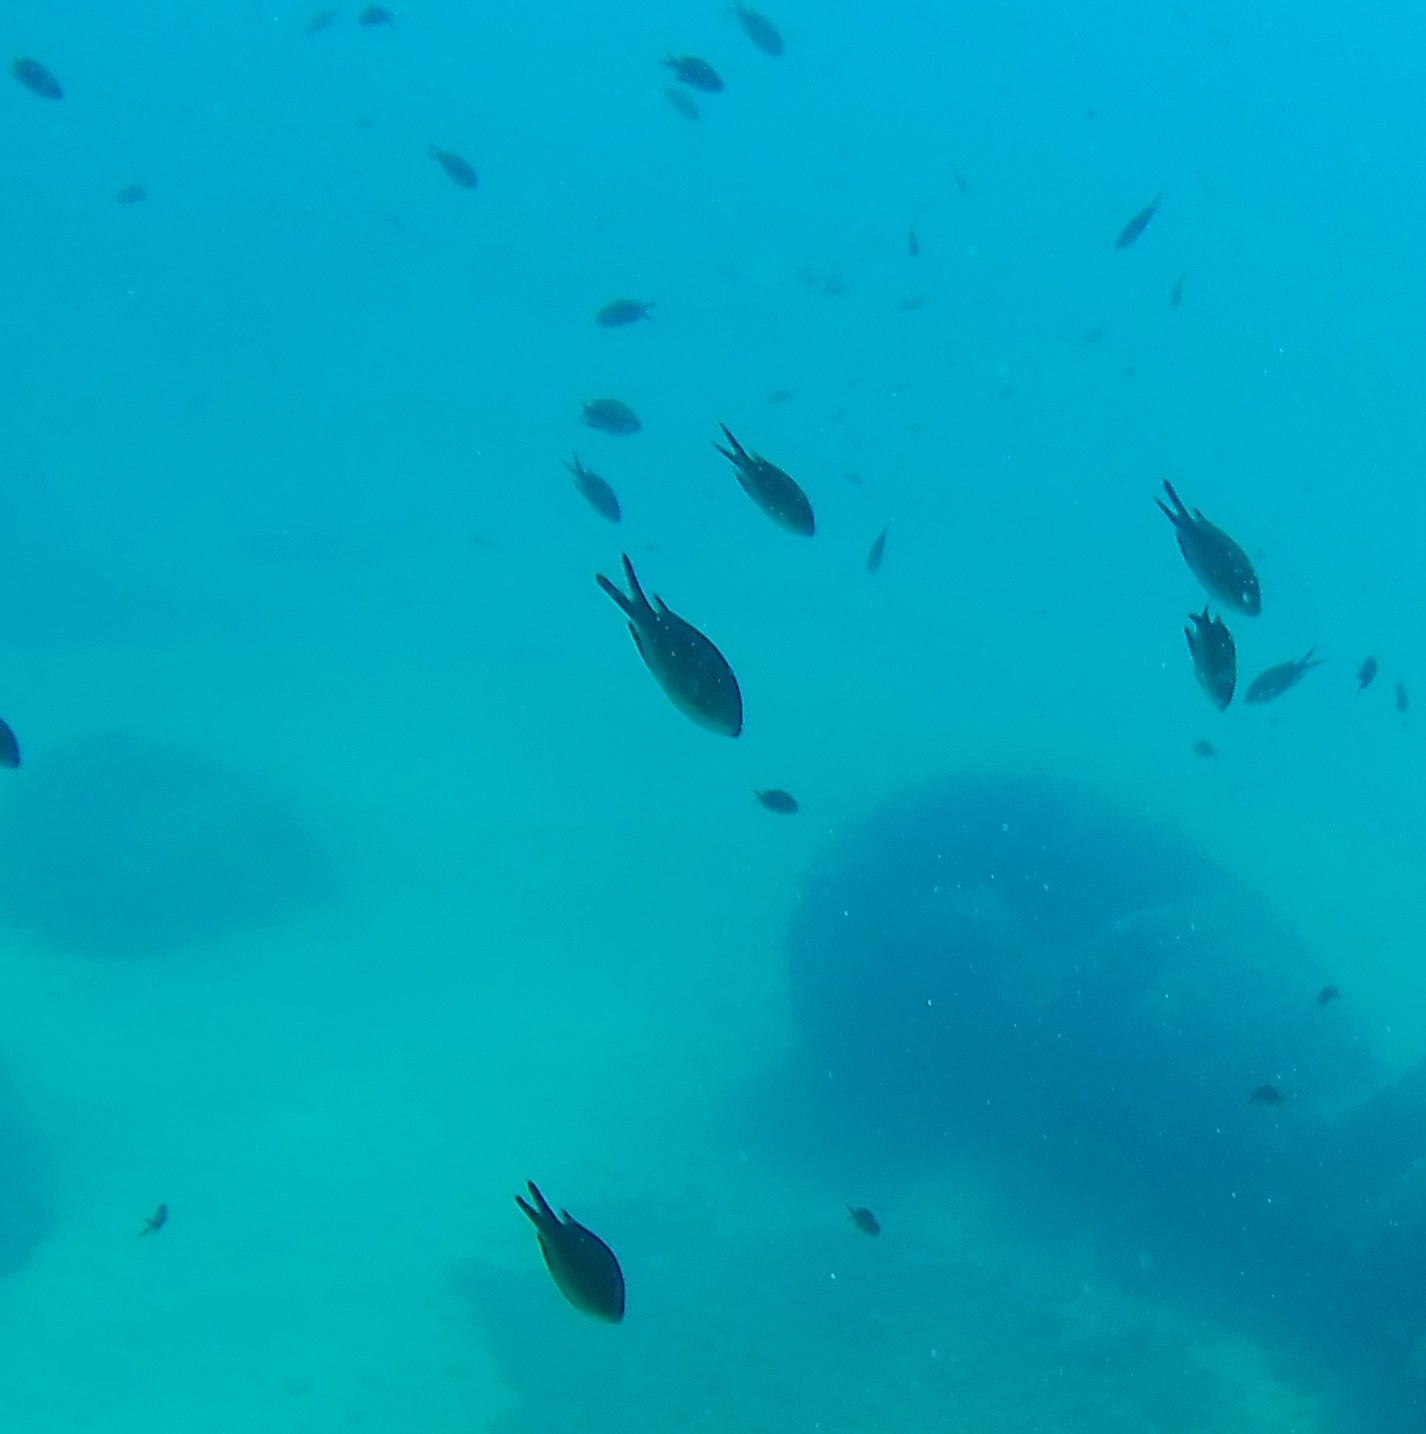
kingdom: Animalia
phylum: Chordata
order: Perciformes
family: Pomacentridae
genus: Chromis
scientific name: Chromis chromis
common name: Damselfish
